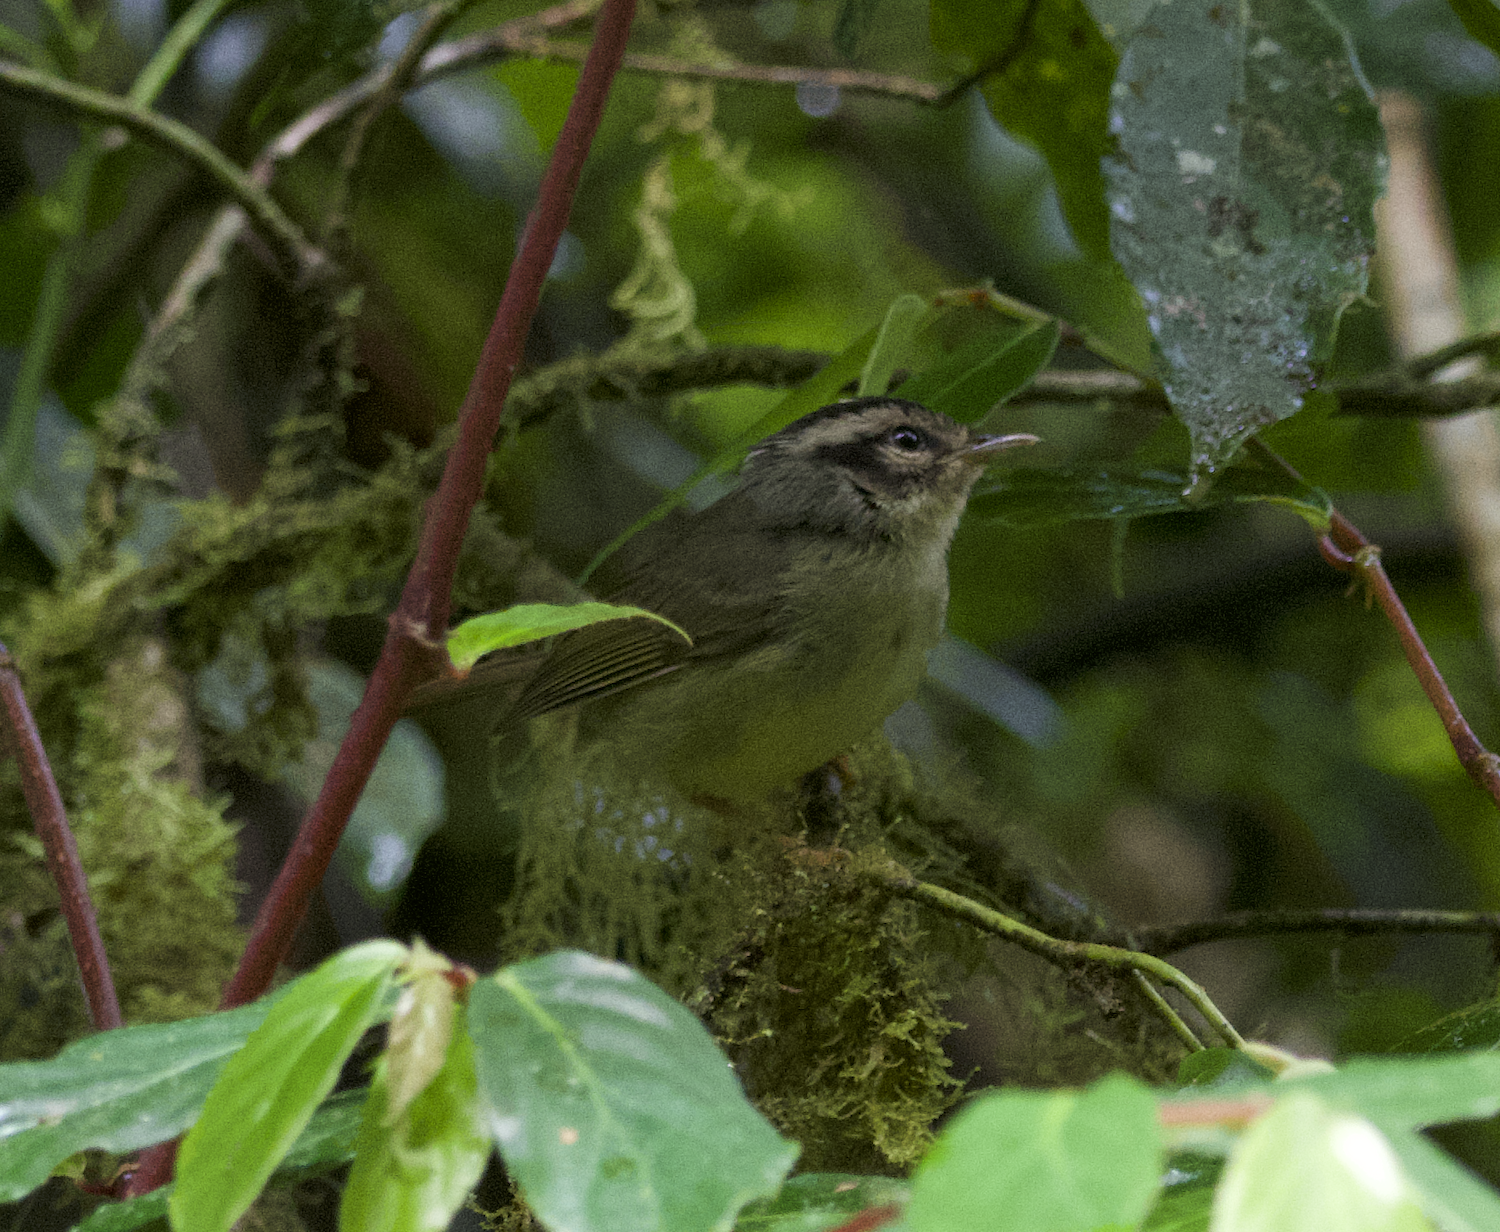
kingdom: Animalia
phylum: Chordata
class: Aves
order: Passeriformes
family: Parulidae
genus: Basileuterus
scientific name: Basileuterus melanotis
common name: Black-eared warbler
